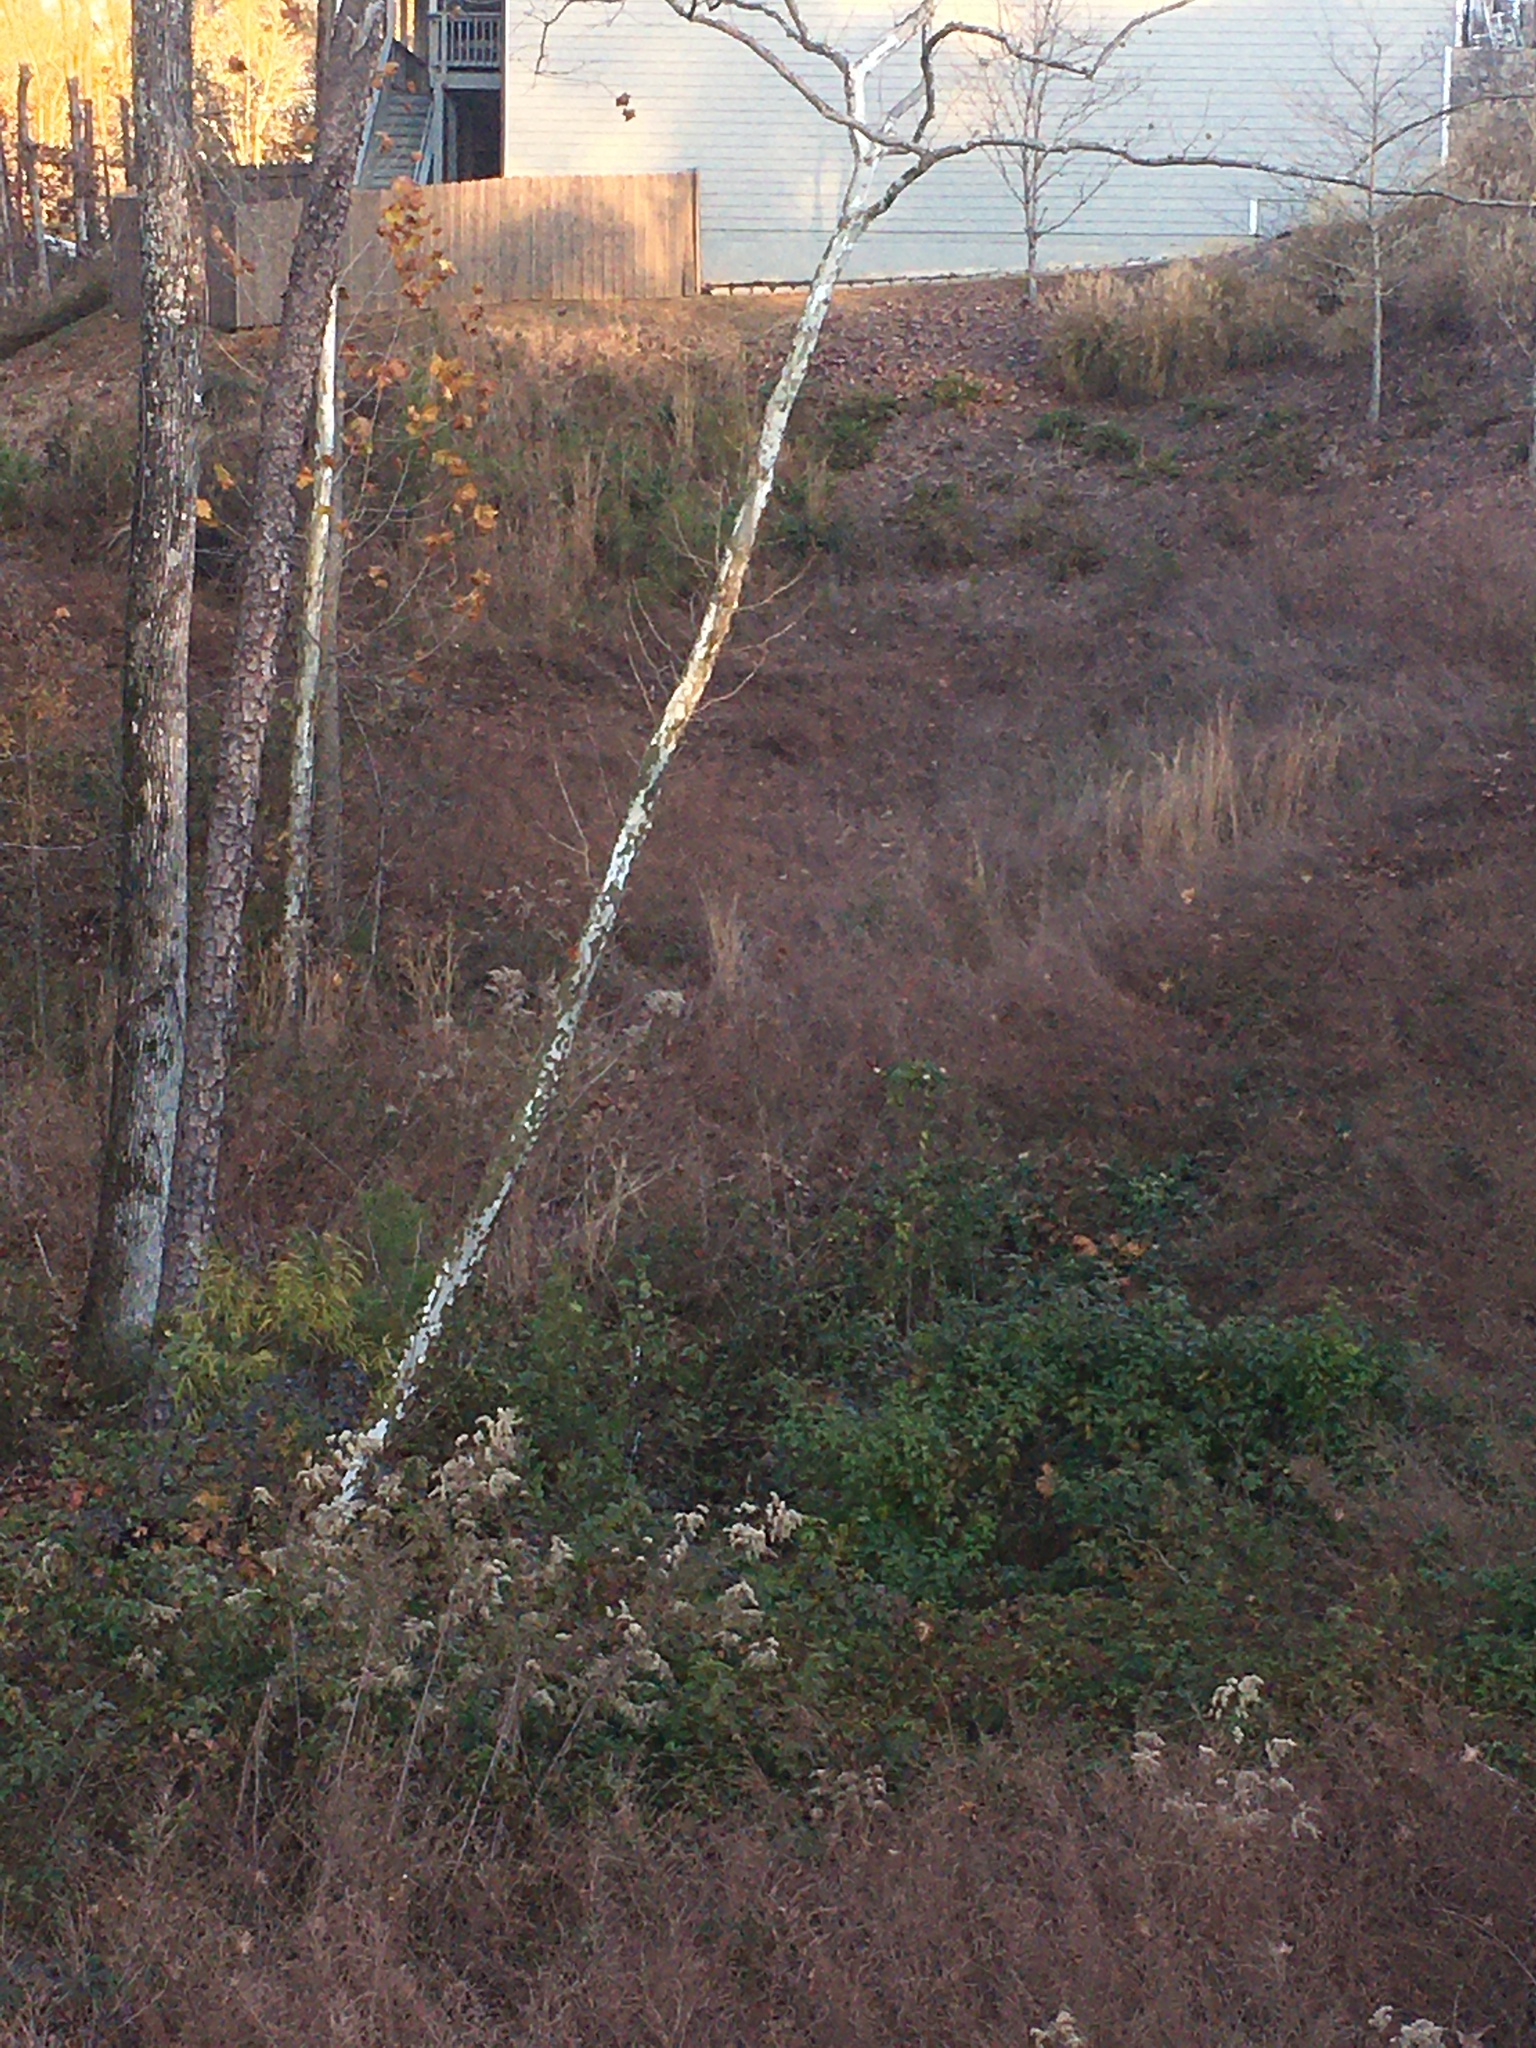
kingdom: Plantae
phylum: Tracheophyta
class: Magnoliopsida
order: Proteales
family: Platanaceae
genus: Platanus
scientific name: Platanus occidentalis
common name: American sycamore
